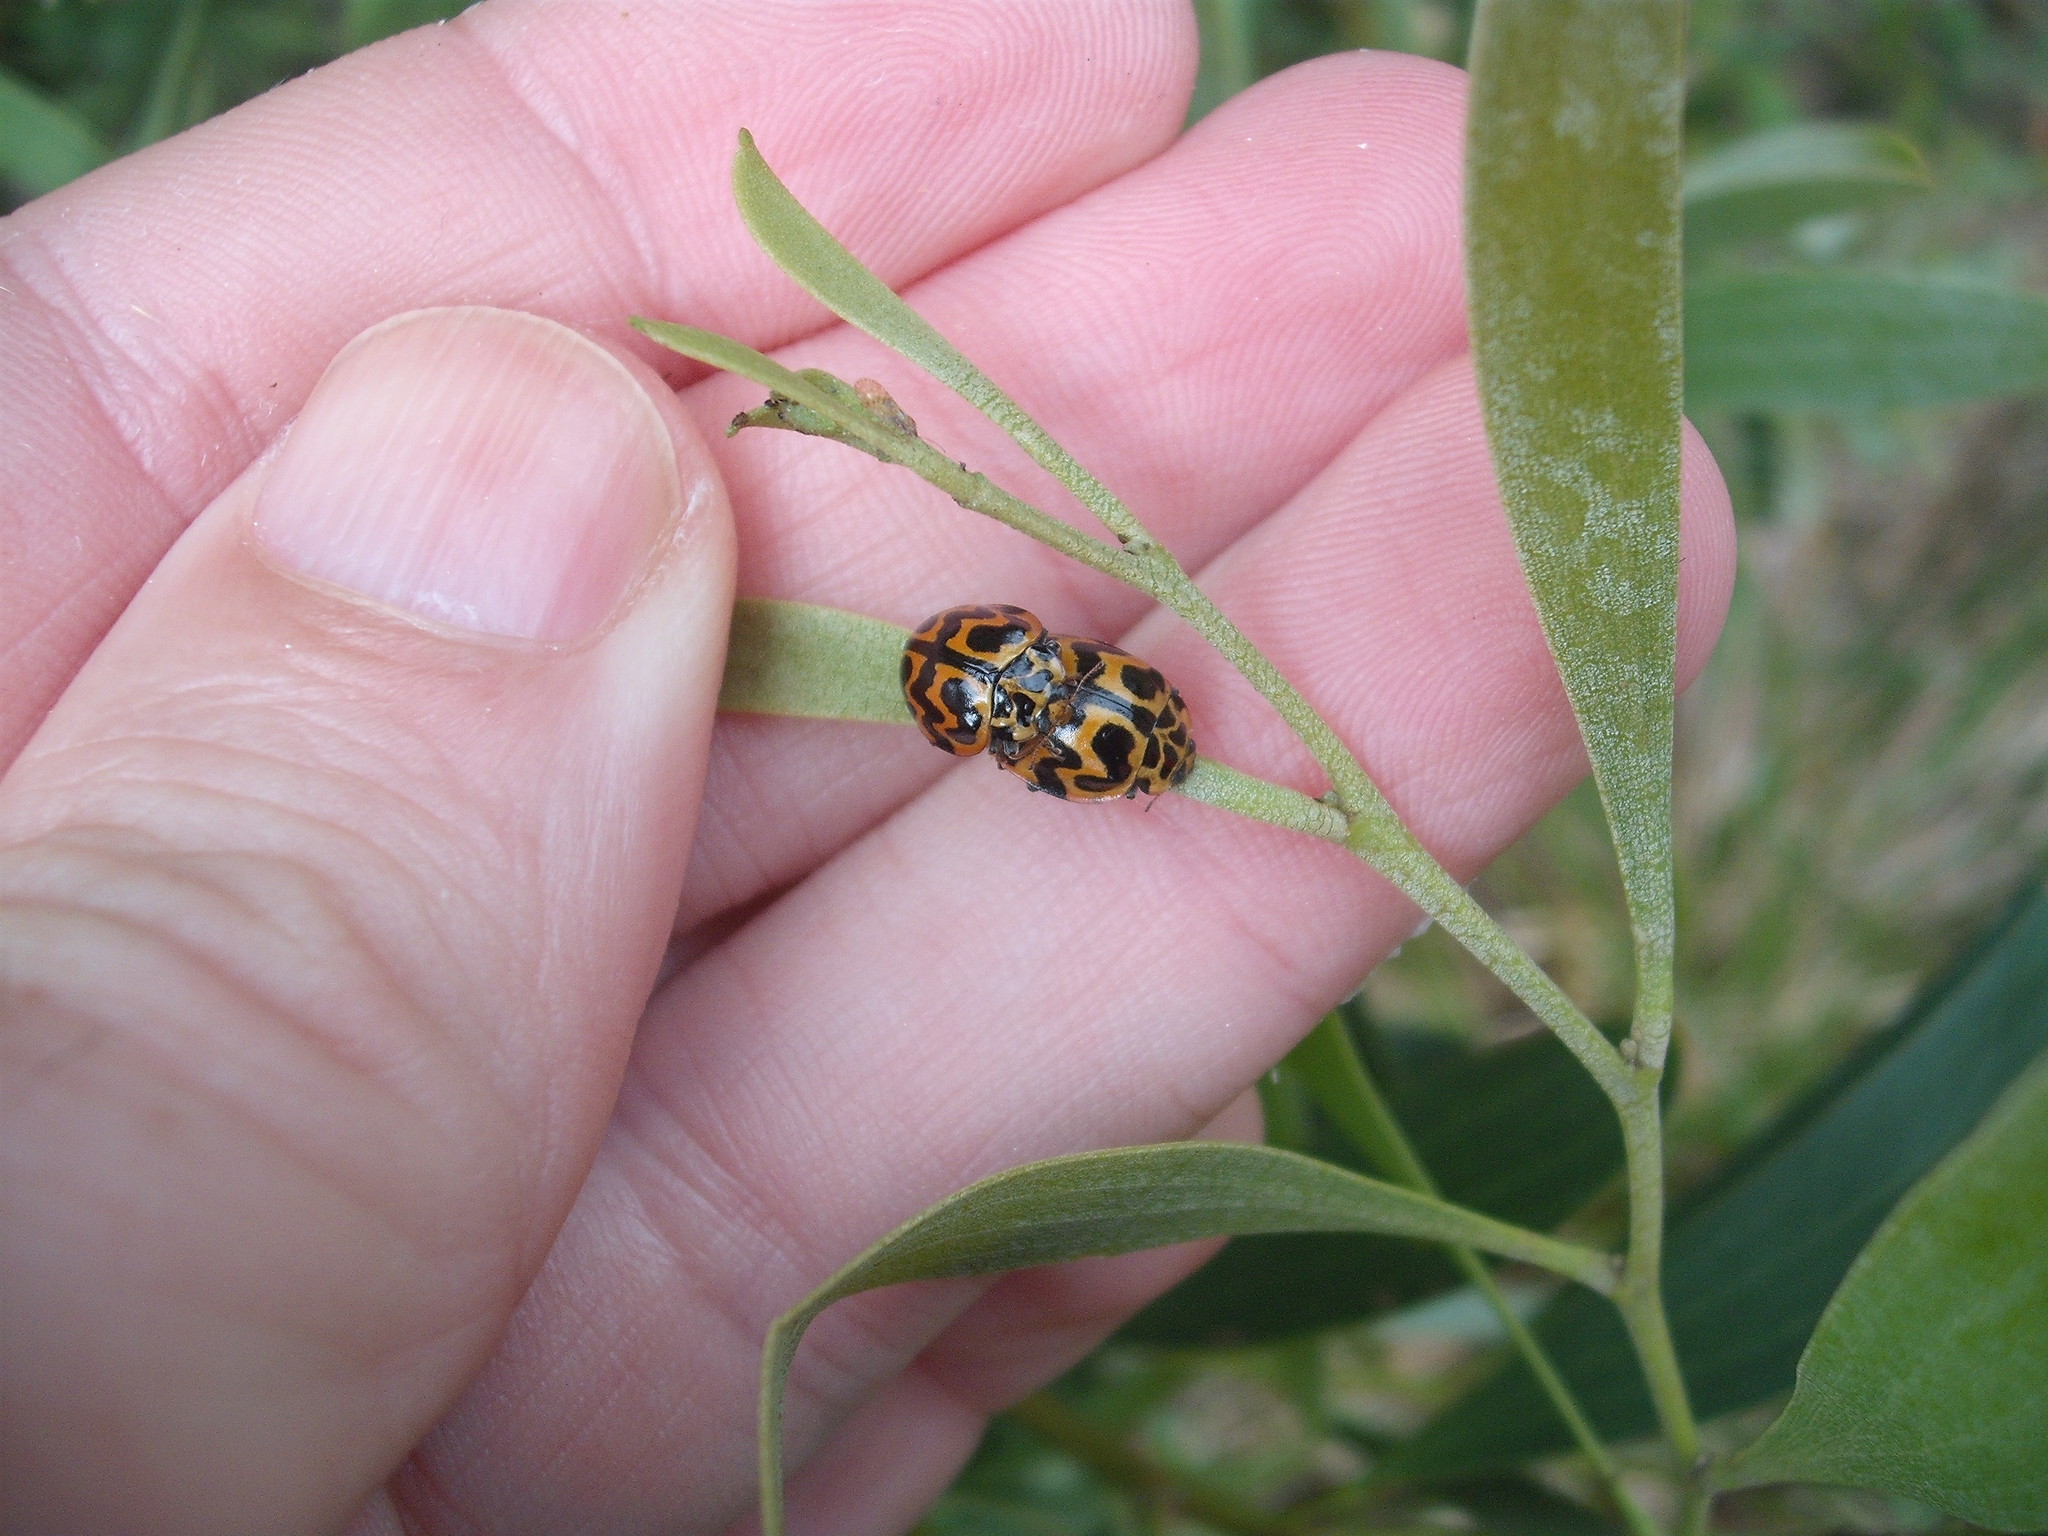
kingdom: Animalia
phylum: Arthropoda
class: Insecta
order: Coleoptera
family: Coccinellidae
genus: Cleobora
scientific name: Cleobora
